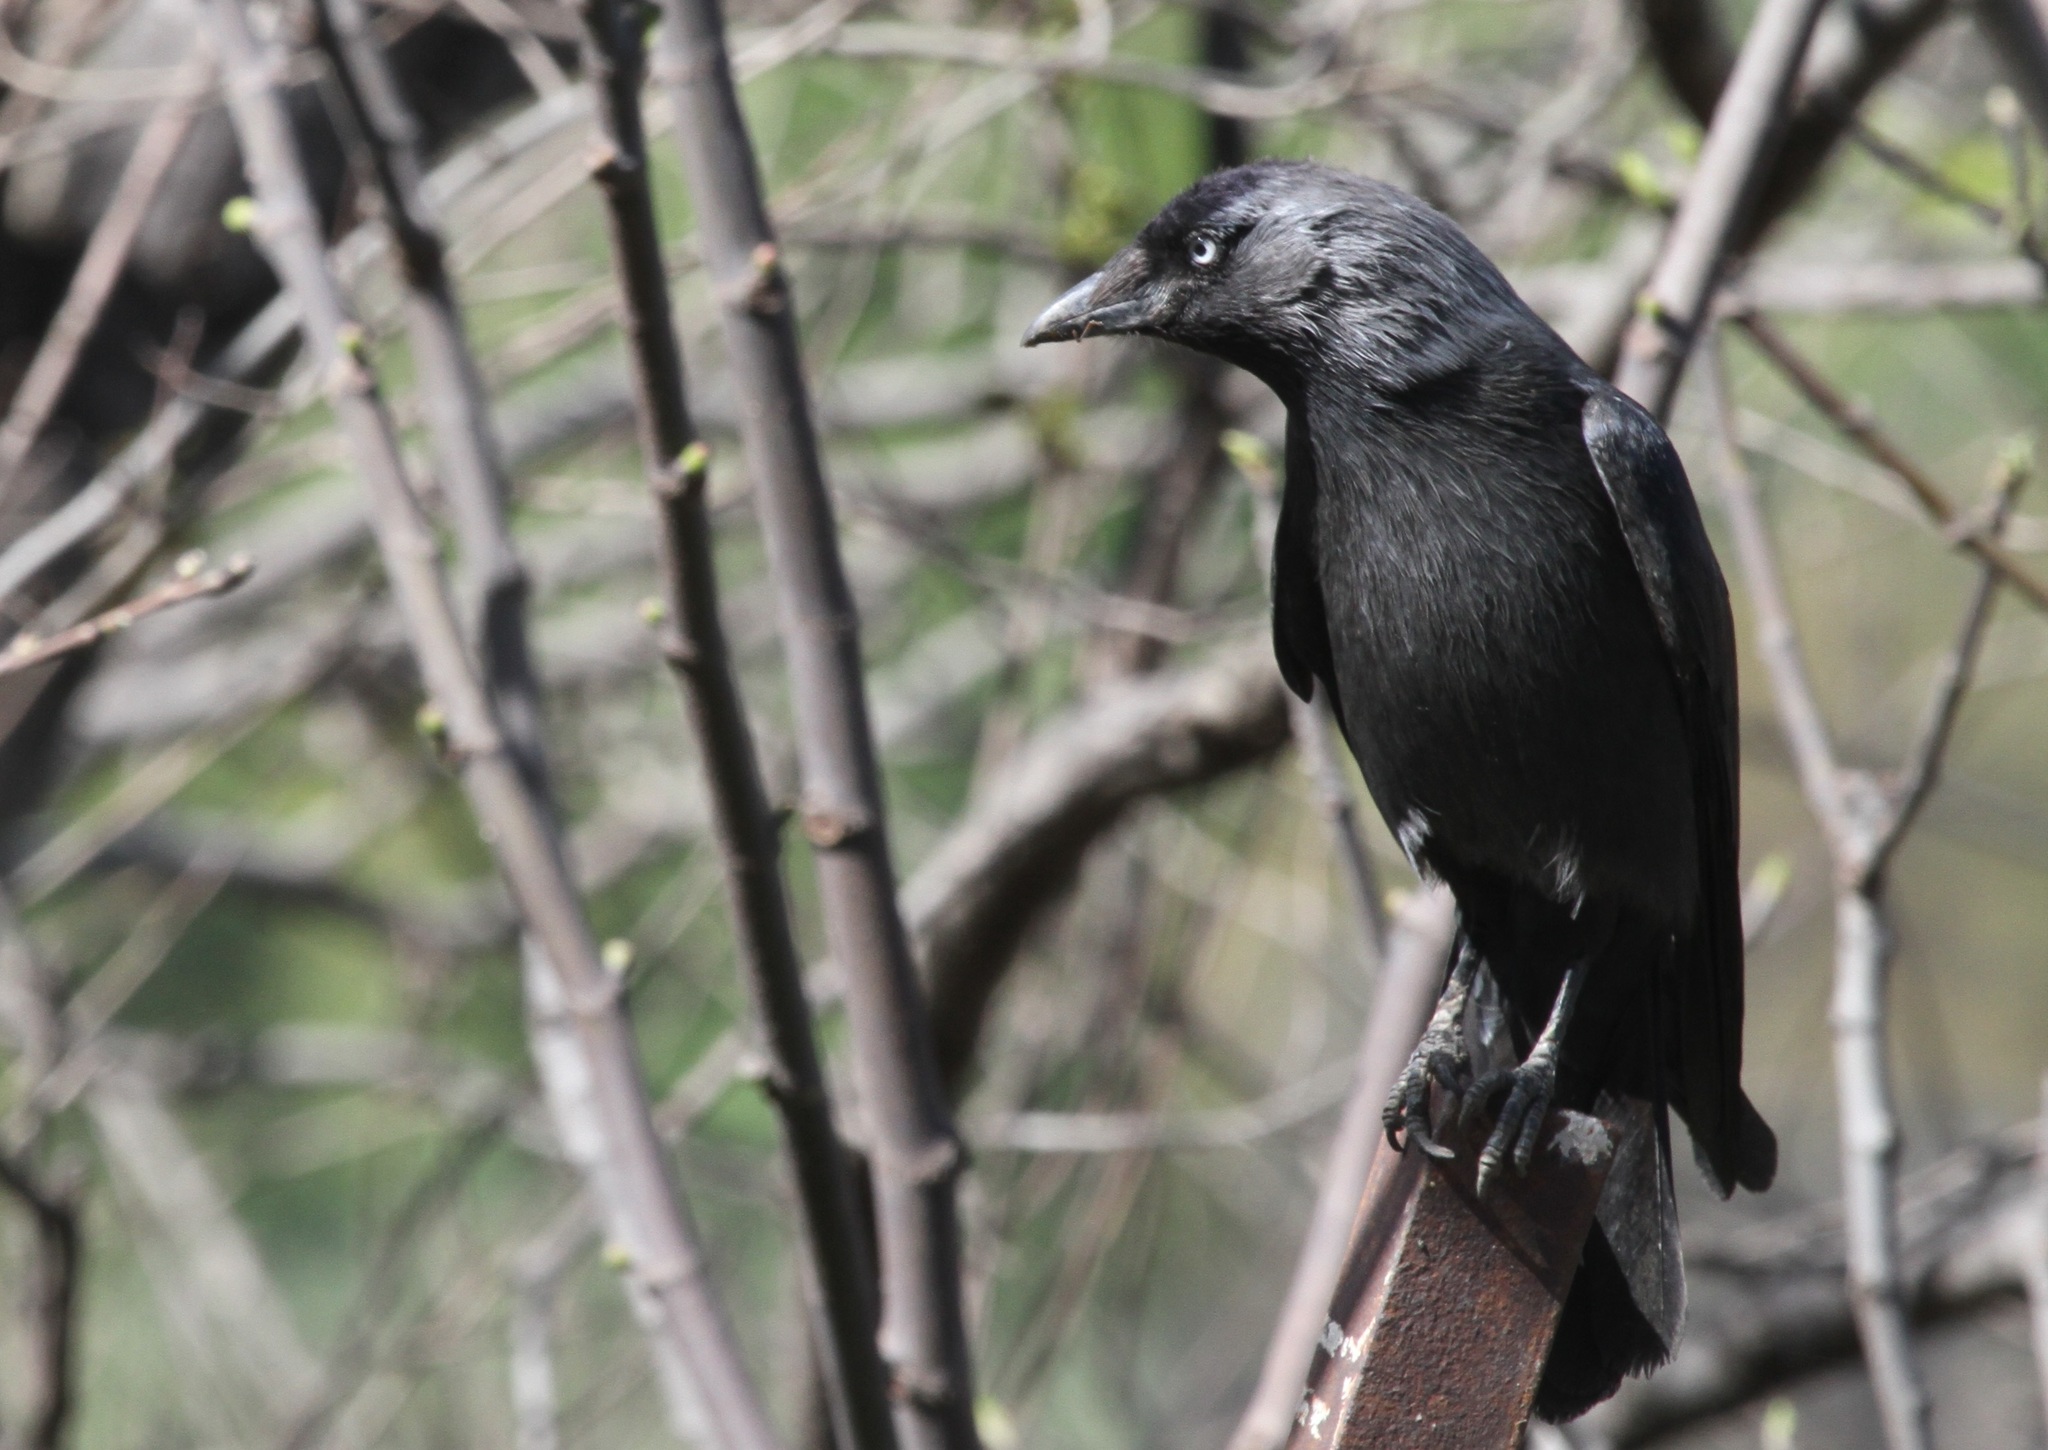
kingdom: Animalia
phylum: Chordata
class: Aves
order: Passeriformes
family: Corvidae
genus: Coloeus
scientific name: Coloeus monedula
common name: Western jackdaw
